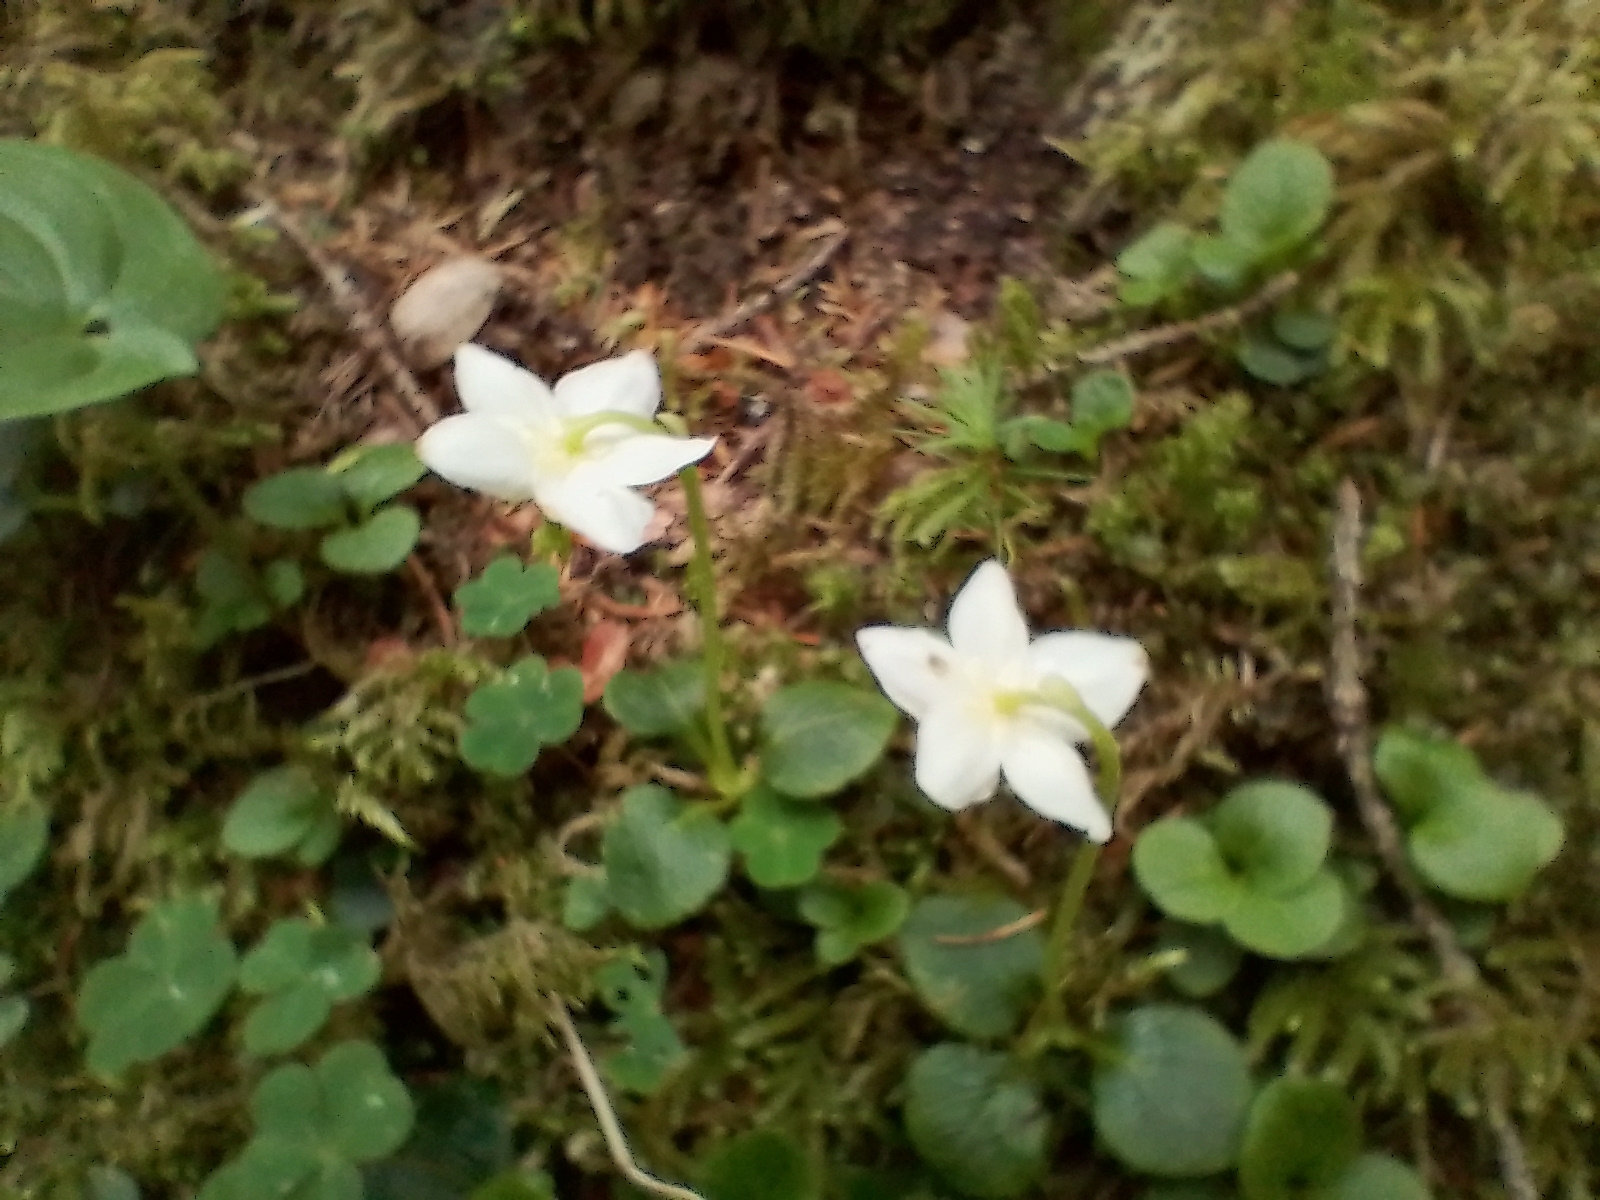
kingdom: Plantae
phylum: Tracheophyta
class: Magnoliopsida
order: Ericales
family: Ericaceae
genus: Moneses
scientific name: Moneses uniflora
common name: One-flowered wintergreen
